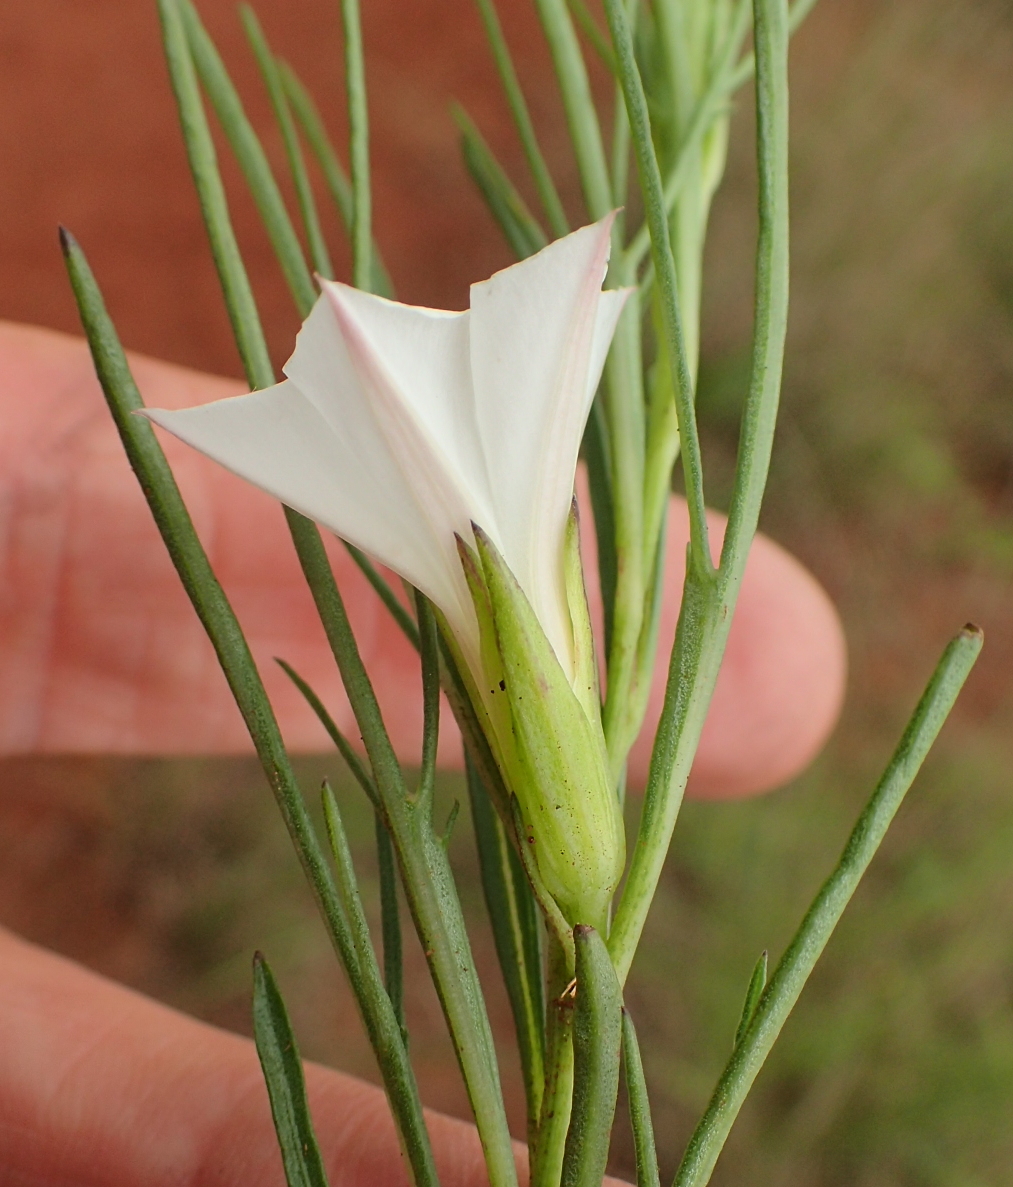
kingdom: Plantae
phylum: Tracheophyta
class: Magnoliopsida
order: Solanales
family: Convolvulaceae
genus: Ipomoea
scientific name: Ipomoea simplex
